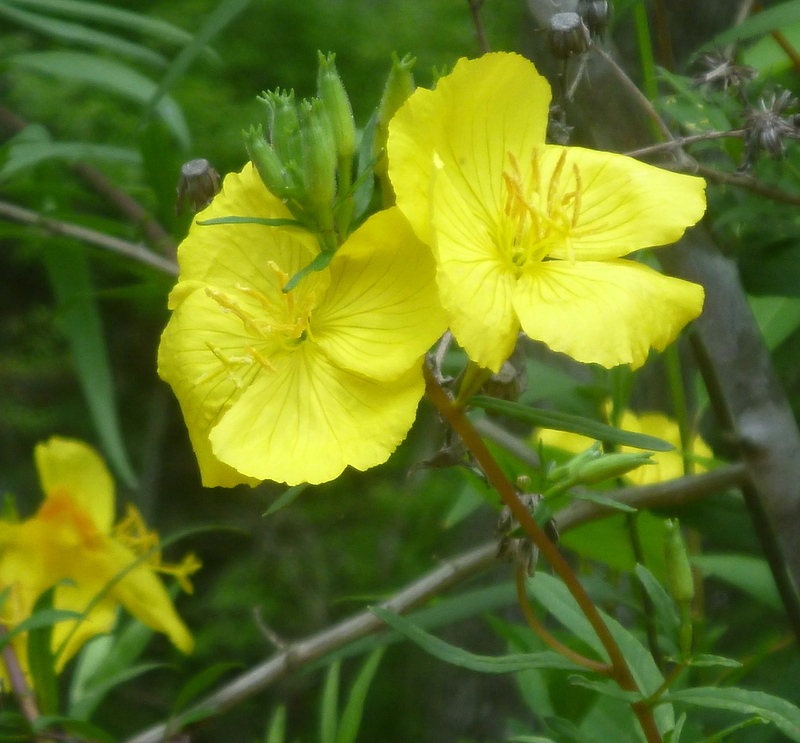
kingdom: Plantae
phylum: Tracheophyta
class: Magnoliopsida
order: Myrtales
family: Onagraceae
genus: Oenothera
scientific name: Oenothera fruticosa
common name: Southern sundrops
